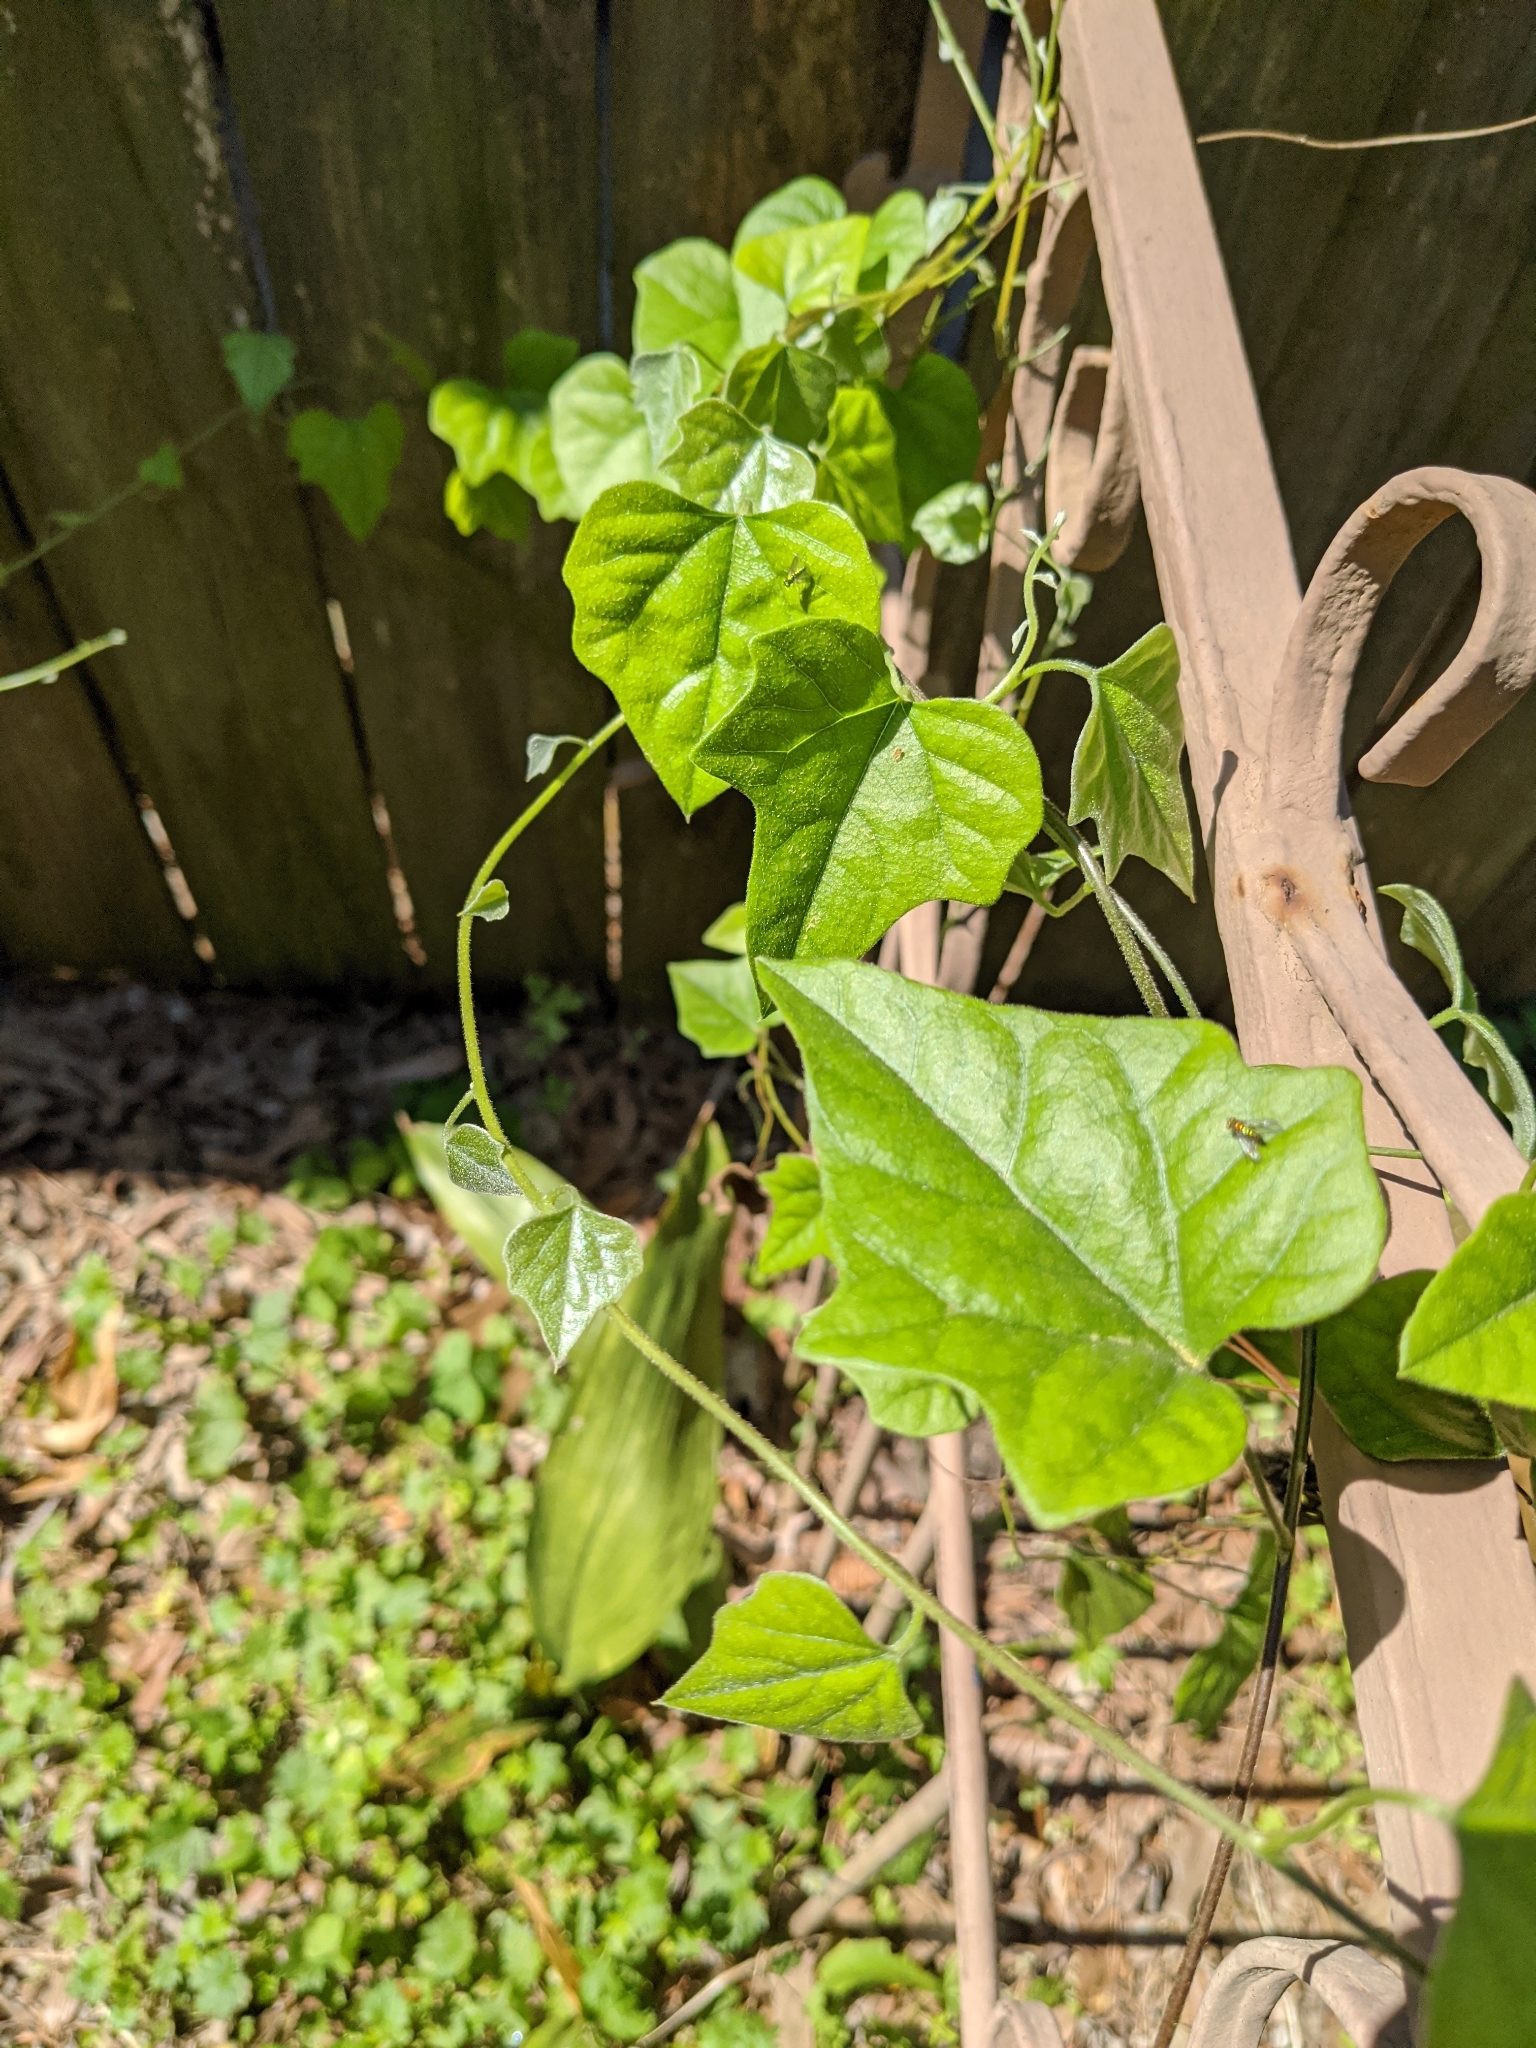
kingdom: Plantae
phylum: Tracheophyta
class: Magnoliopsida
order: Ranunculales
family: Menispermaceae
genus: Cocculus
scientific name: Cocculus carolinus
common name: Carolina moonseed
